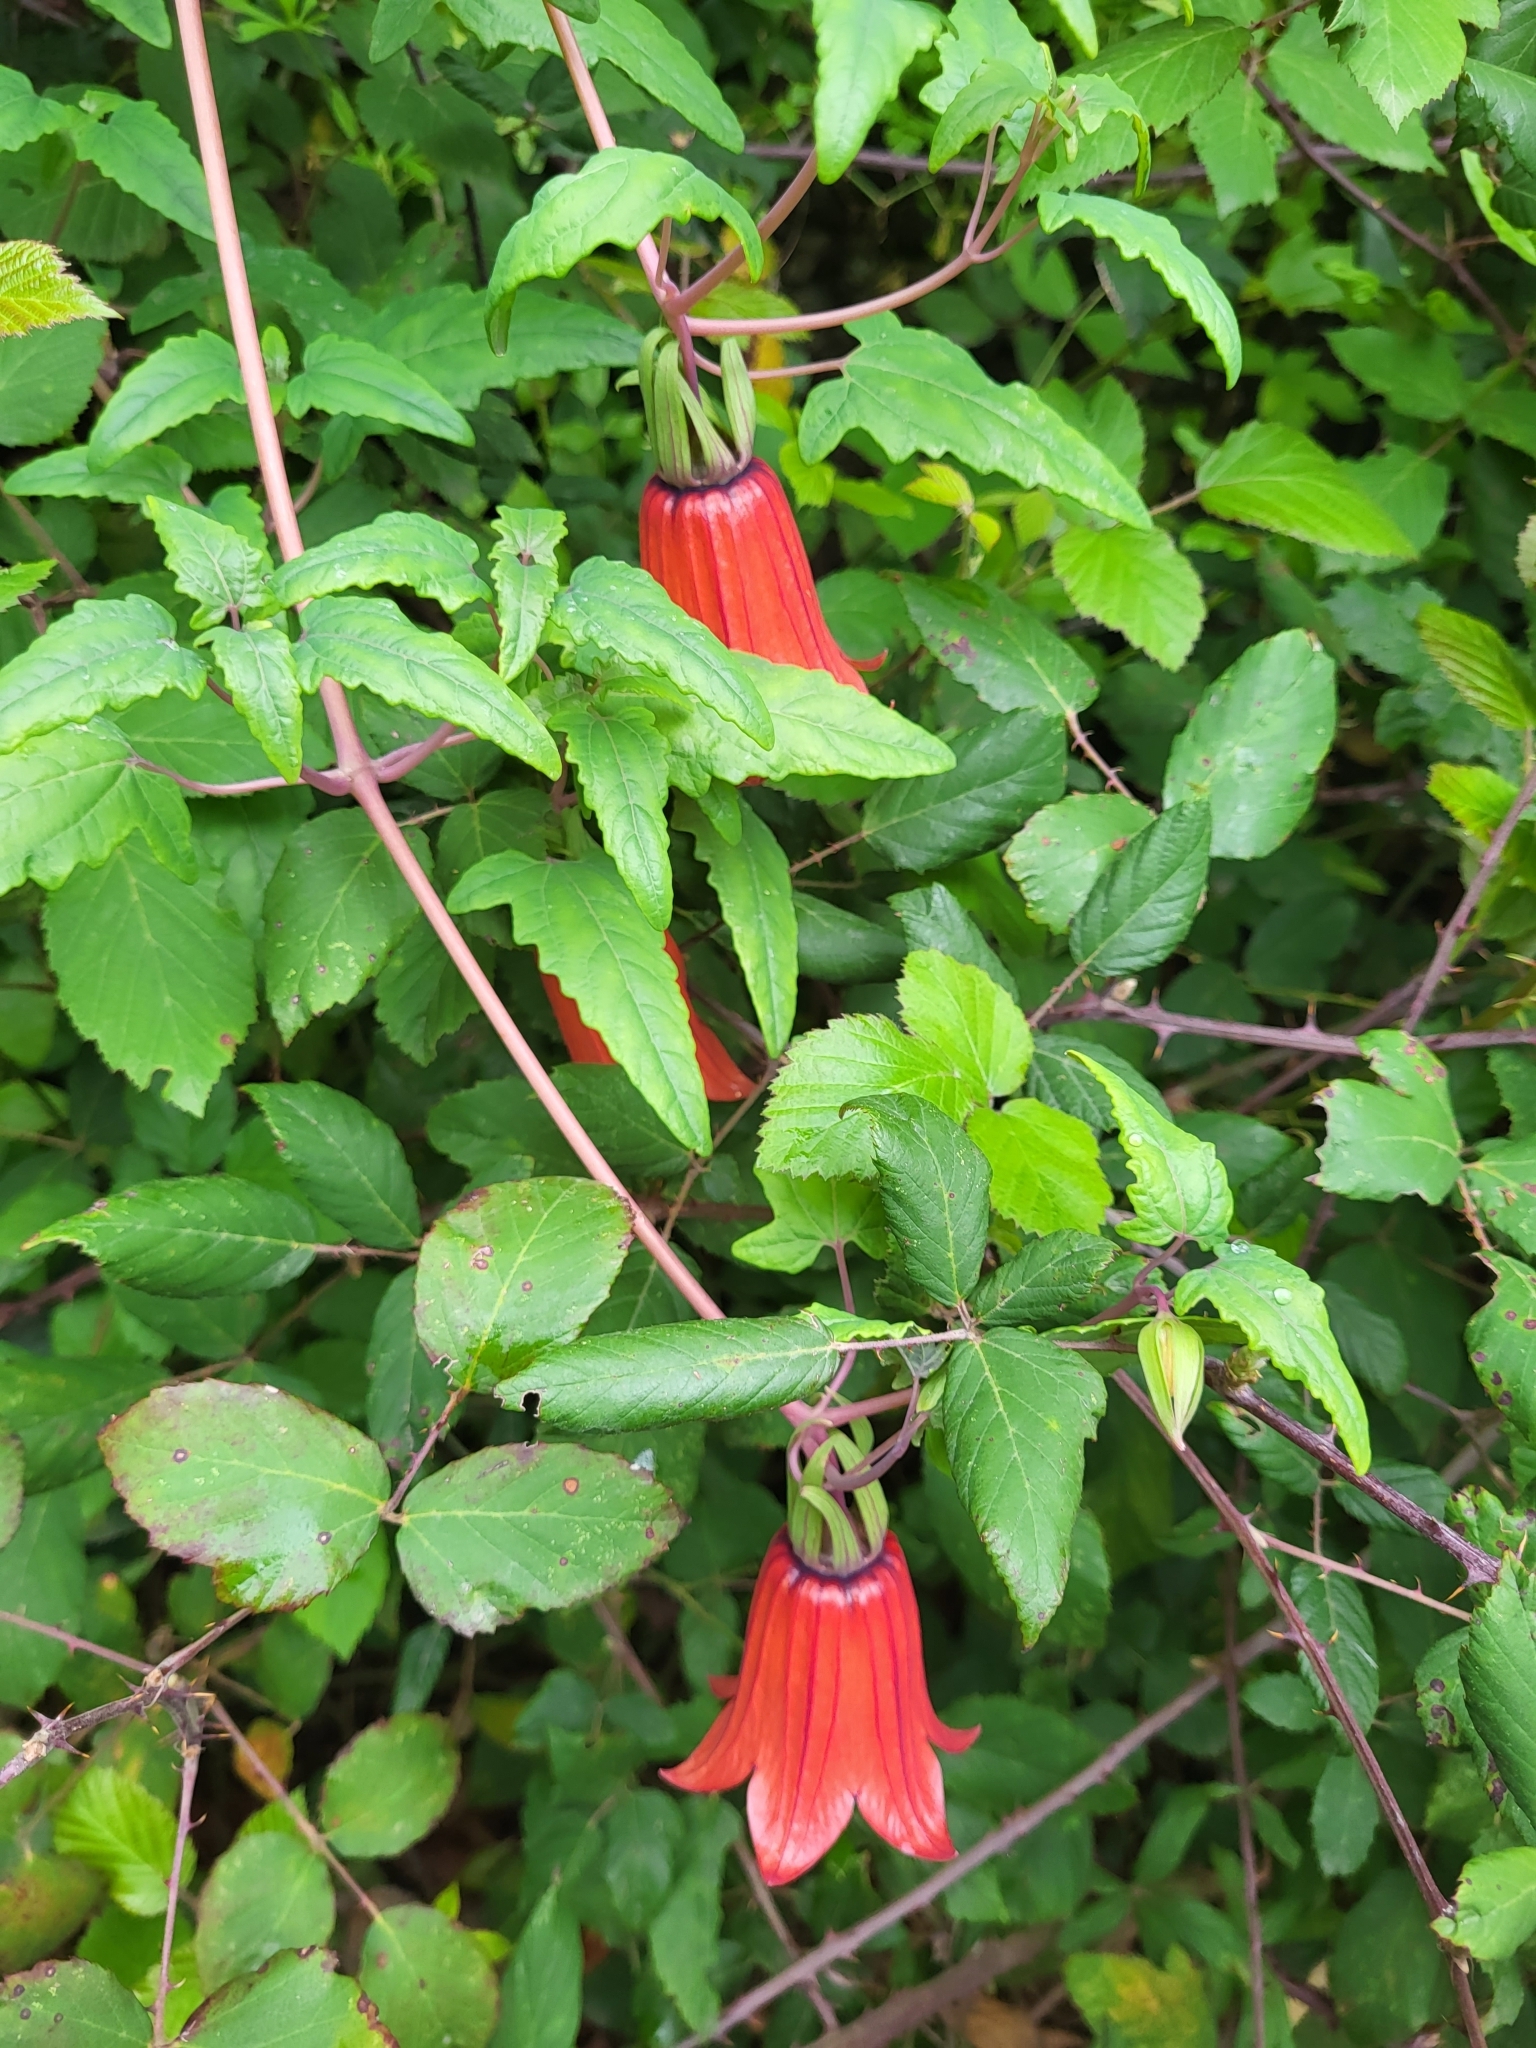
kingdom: Plantae
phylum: Tracheophyta
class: Magnoliopsida
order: Asterales
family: Campanulaceae
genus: Canarina
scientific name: Canarina canariensis
